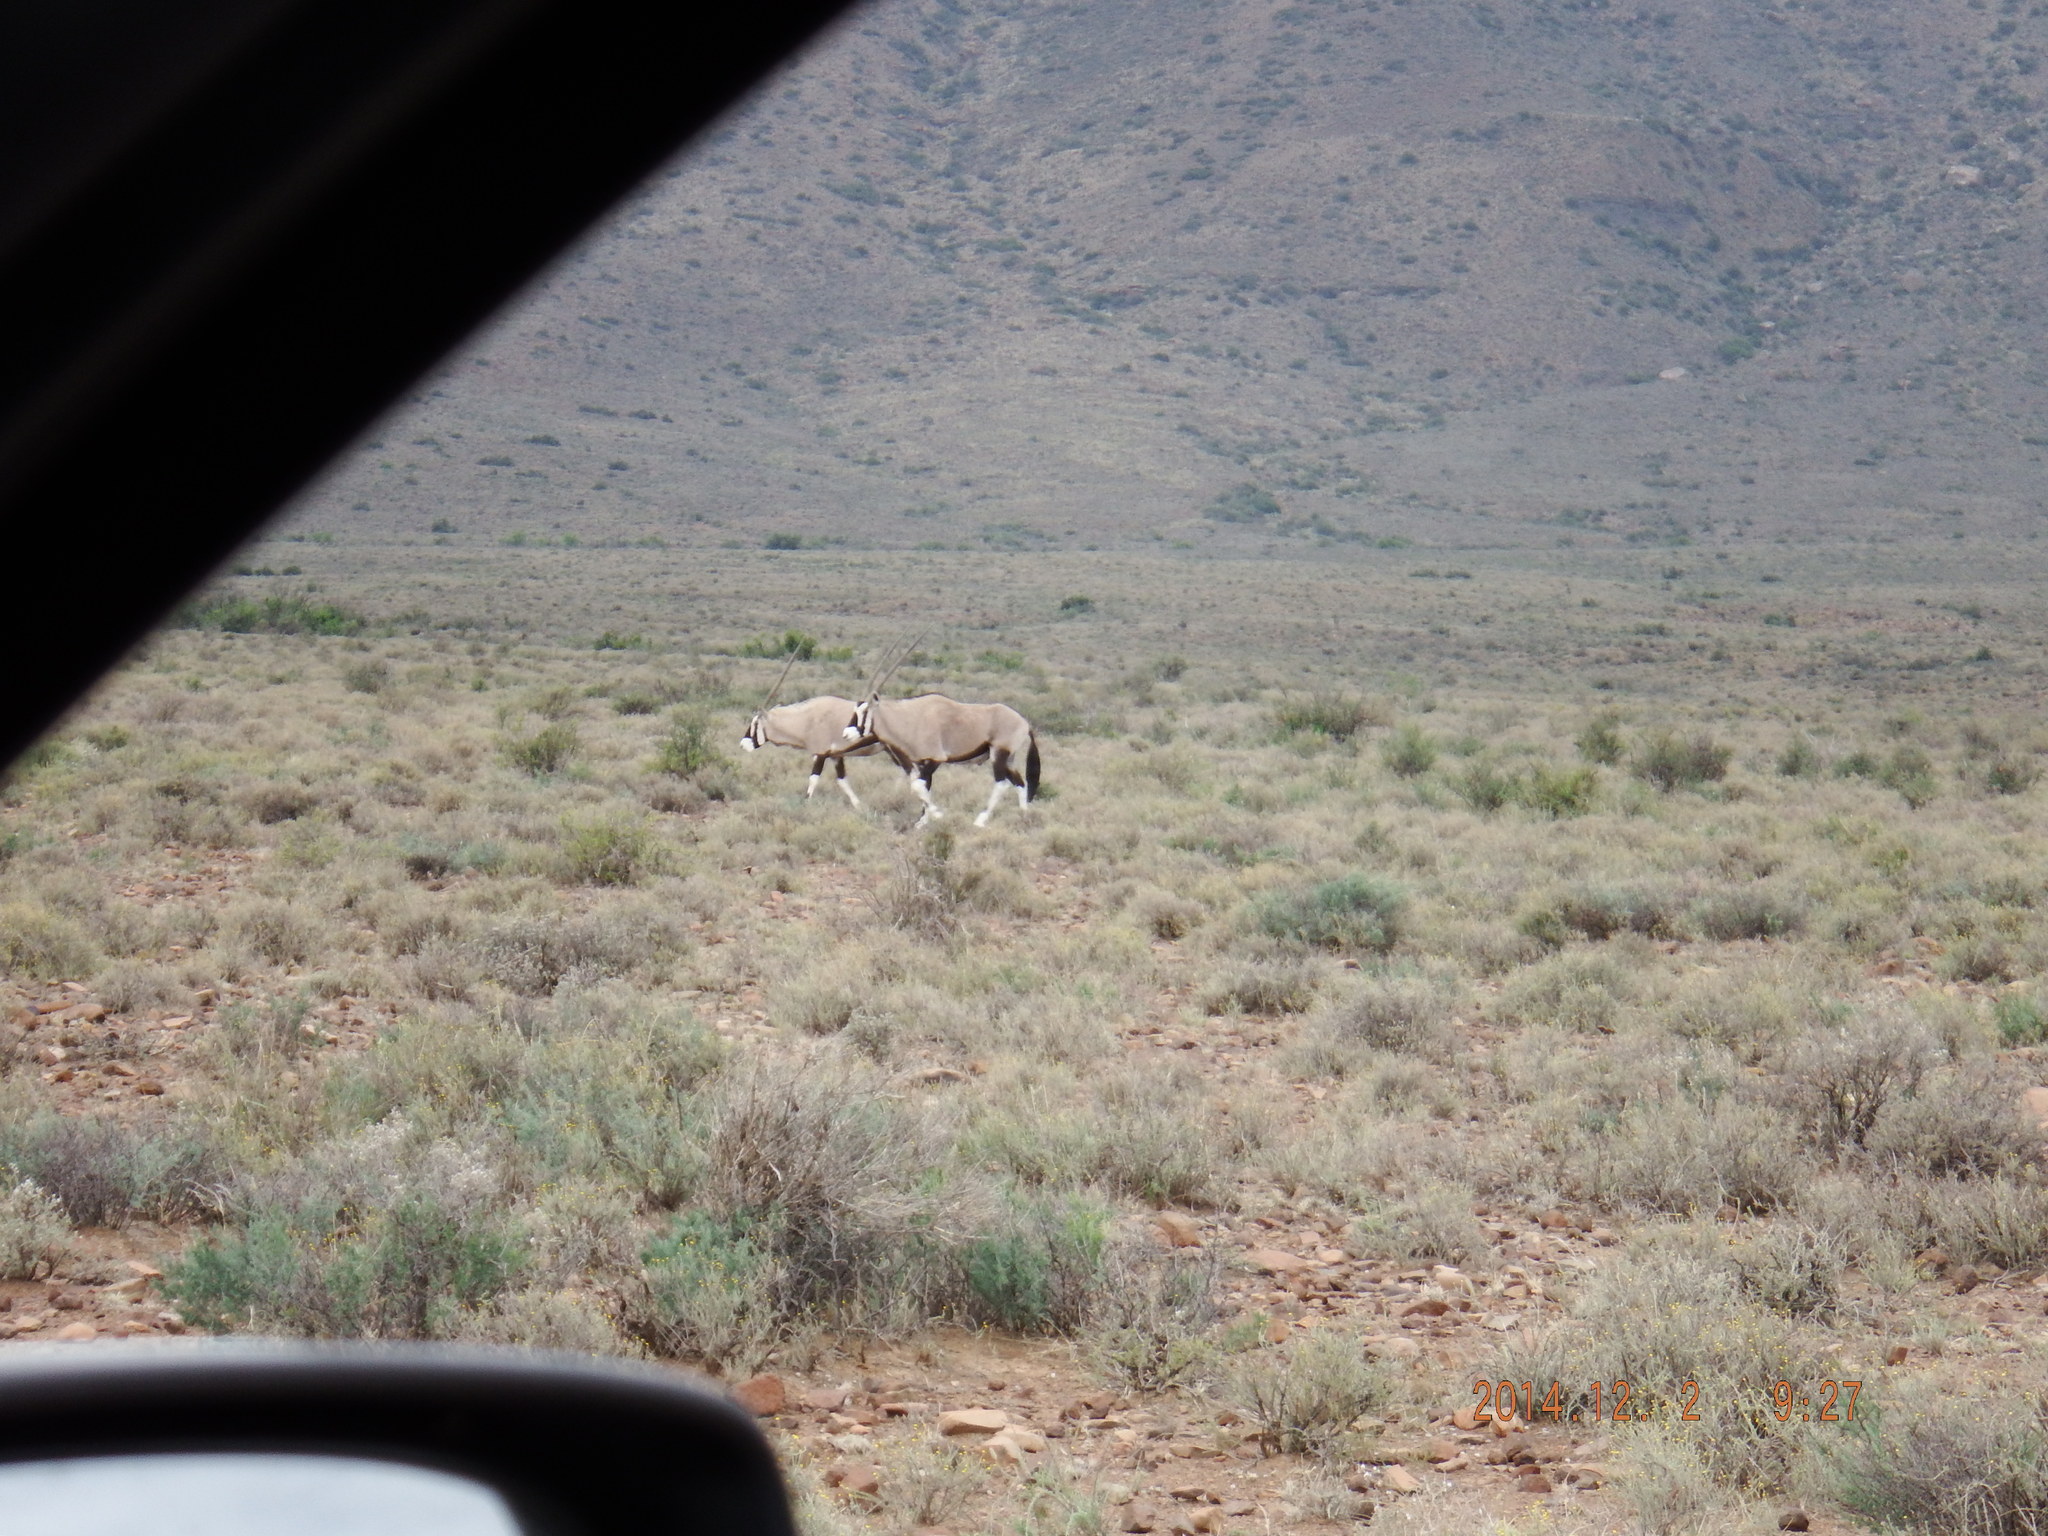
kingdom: Animalia
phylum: Chordata
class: Mammalia
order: Artiodactyla
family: Bovidae
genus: Oryx
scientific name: Oryx gazella
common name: Gemsbok
